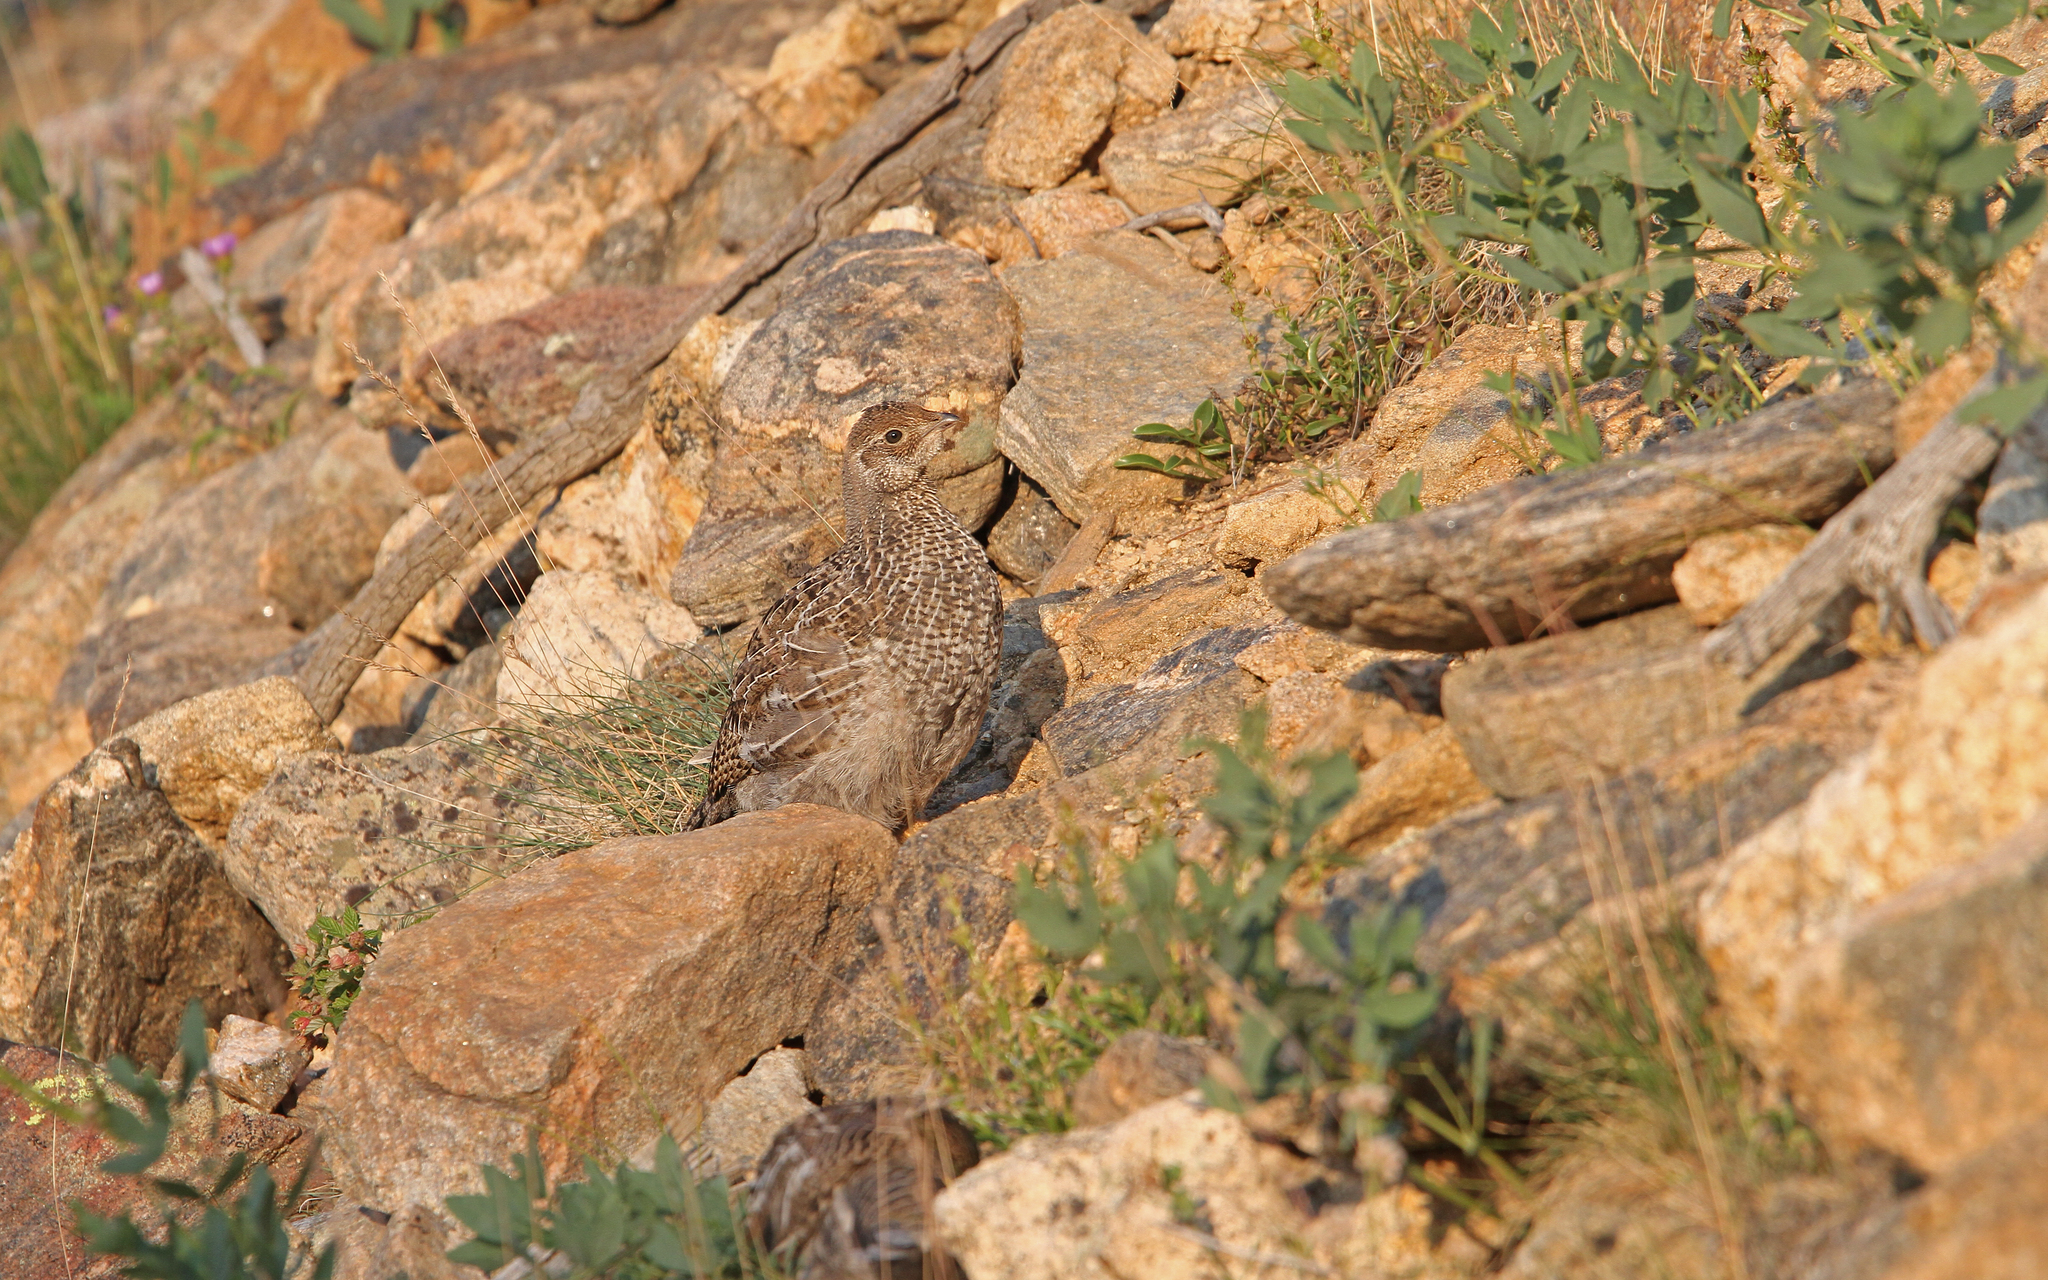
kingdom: Animalia
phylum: Chordata
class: Aves
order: Galliformes
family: Phasianidae
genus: Dendragapus
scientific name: Dendragapus obscurus
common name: Dusky grouse
